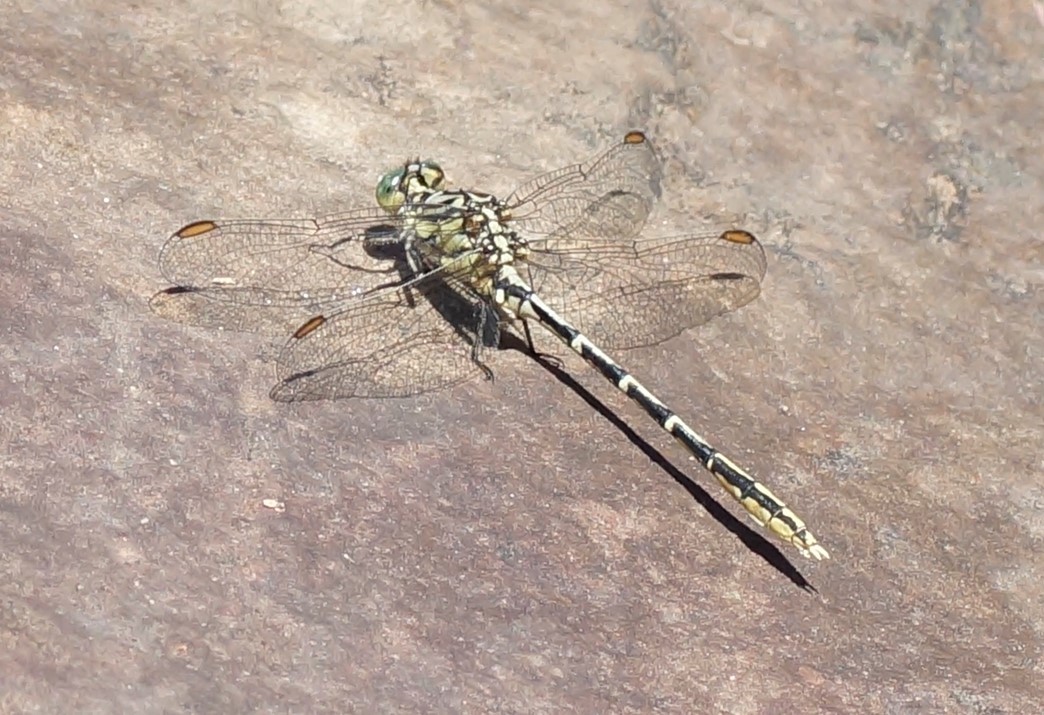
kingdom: Animalia
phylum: Arthropoda
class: Insecta
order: Odonata
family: Gomphidae
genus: Austrogomphus
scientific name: Austrogomphus guerini
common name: Yellow-striped hunter
